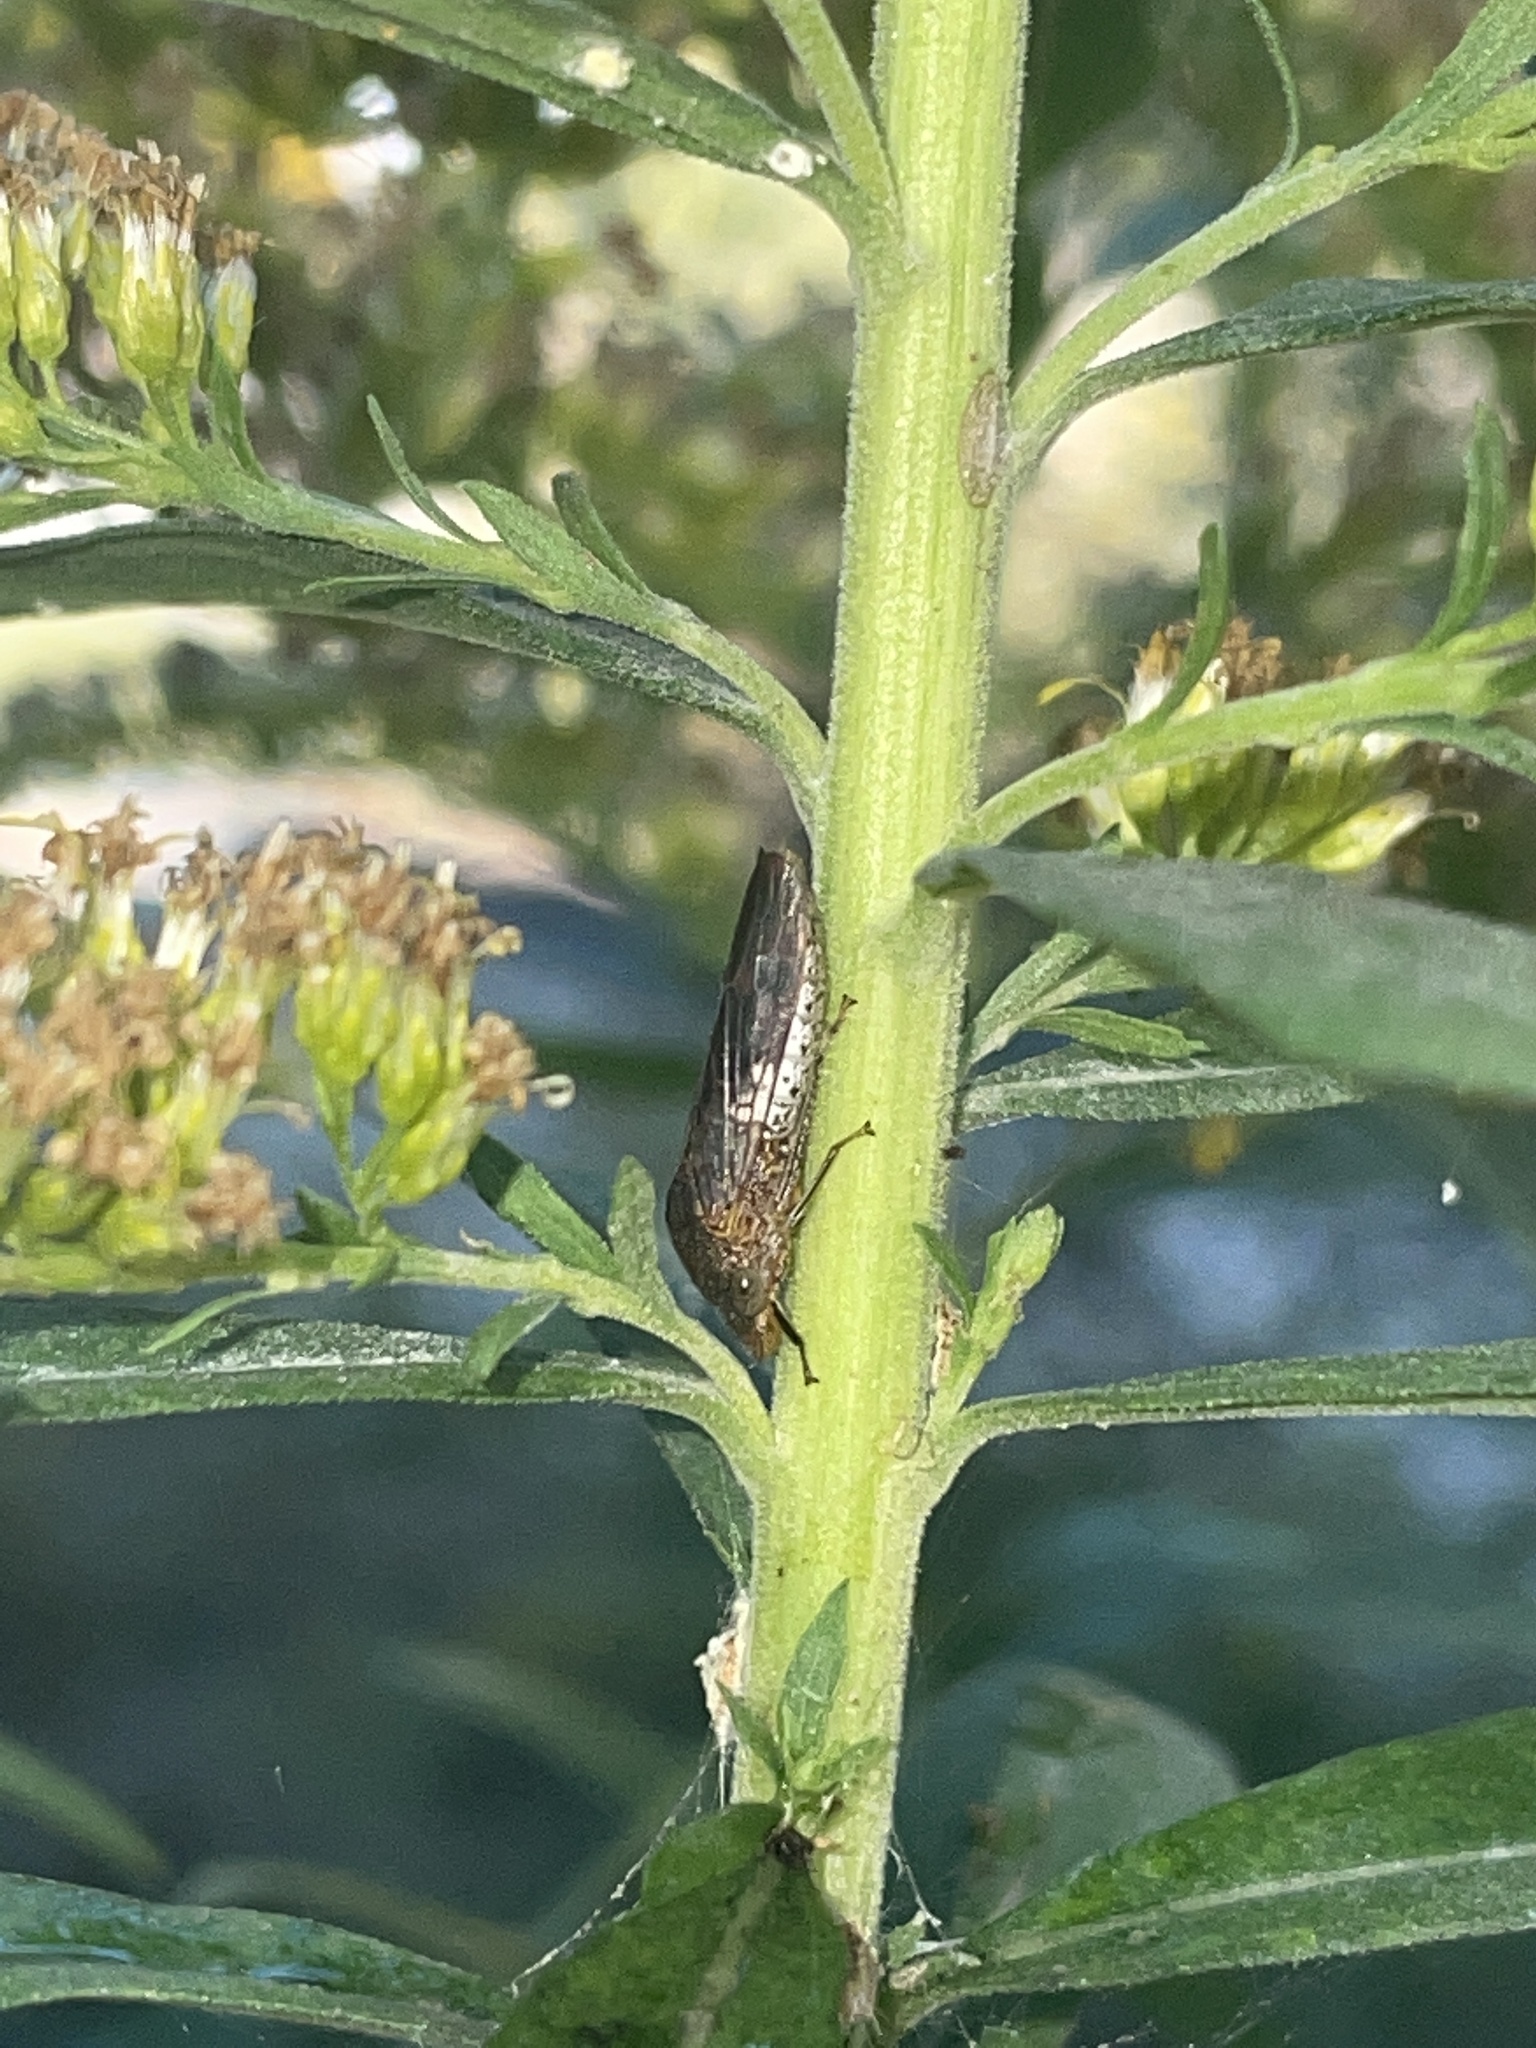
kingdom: Animalia
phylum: Arthropoda
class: Insecta
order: Hemiptera
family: Cicadellidae
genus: Homalodisca
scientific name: Homalodisca vitripennis
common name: Glassy-winged sharpshooter
